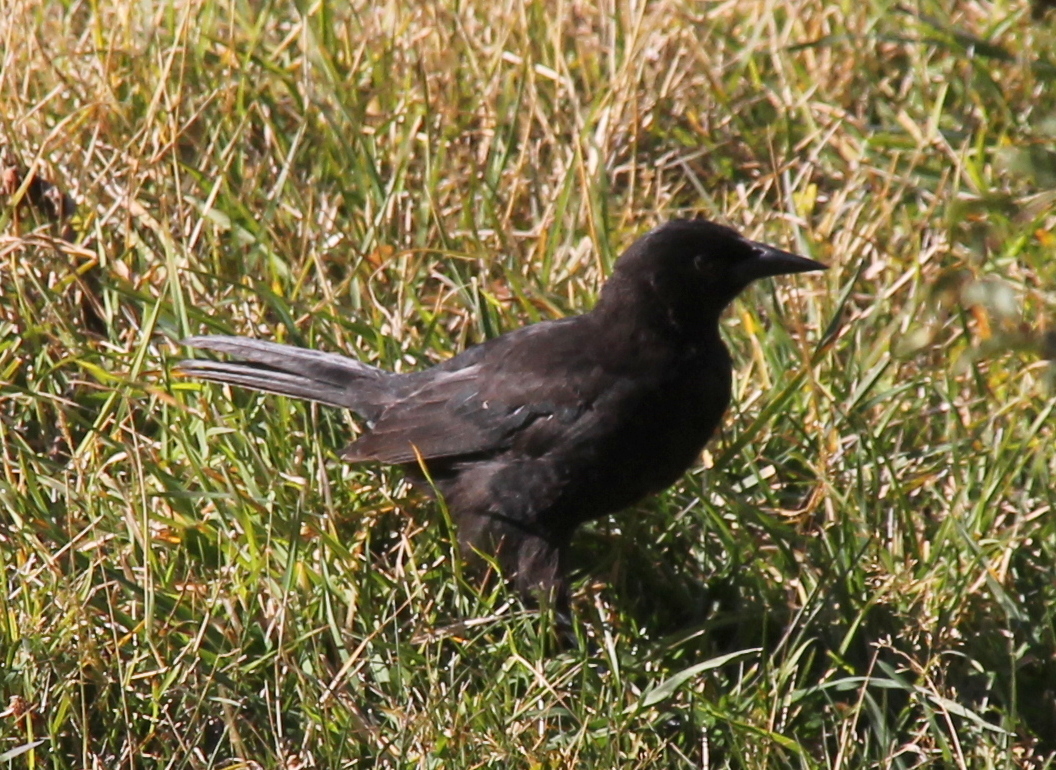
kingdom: Animalia
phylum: Chordata
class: Aves
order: Passeriformes
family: Icteridae
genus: Curaeus
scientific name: Curaeus curaeus
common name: Austral blackbird
